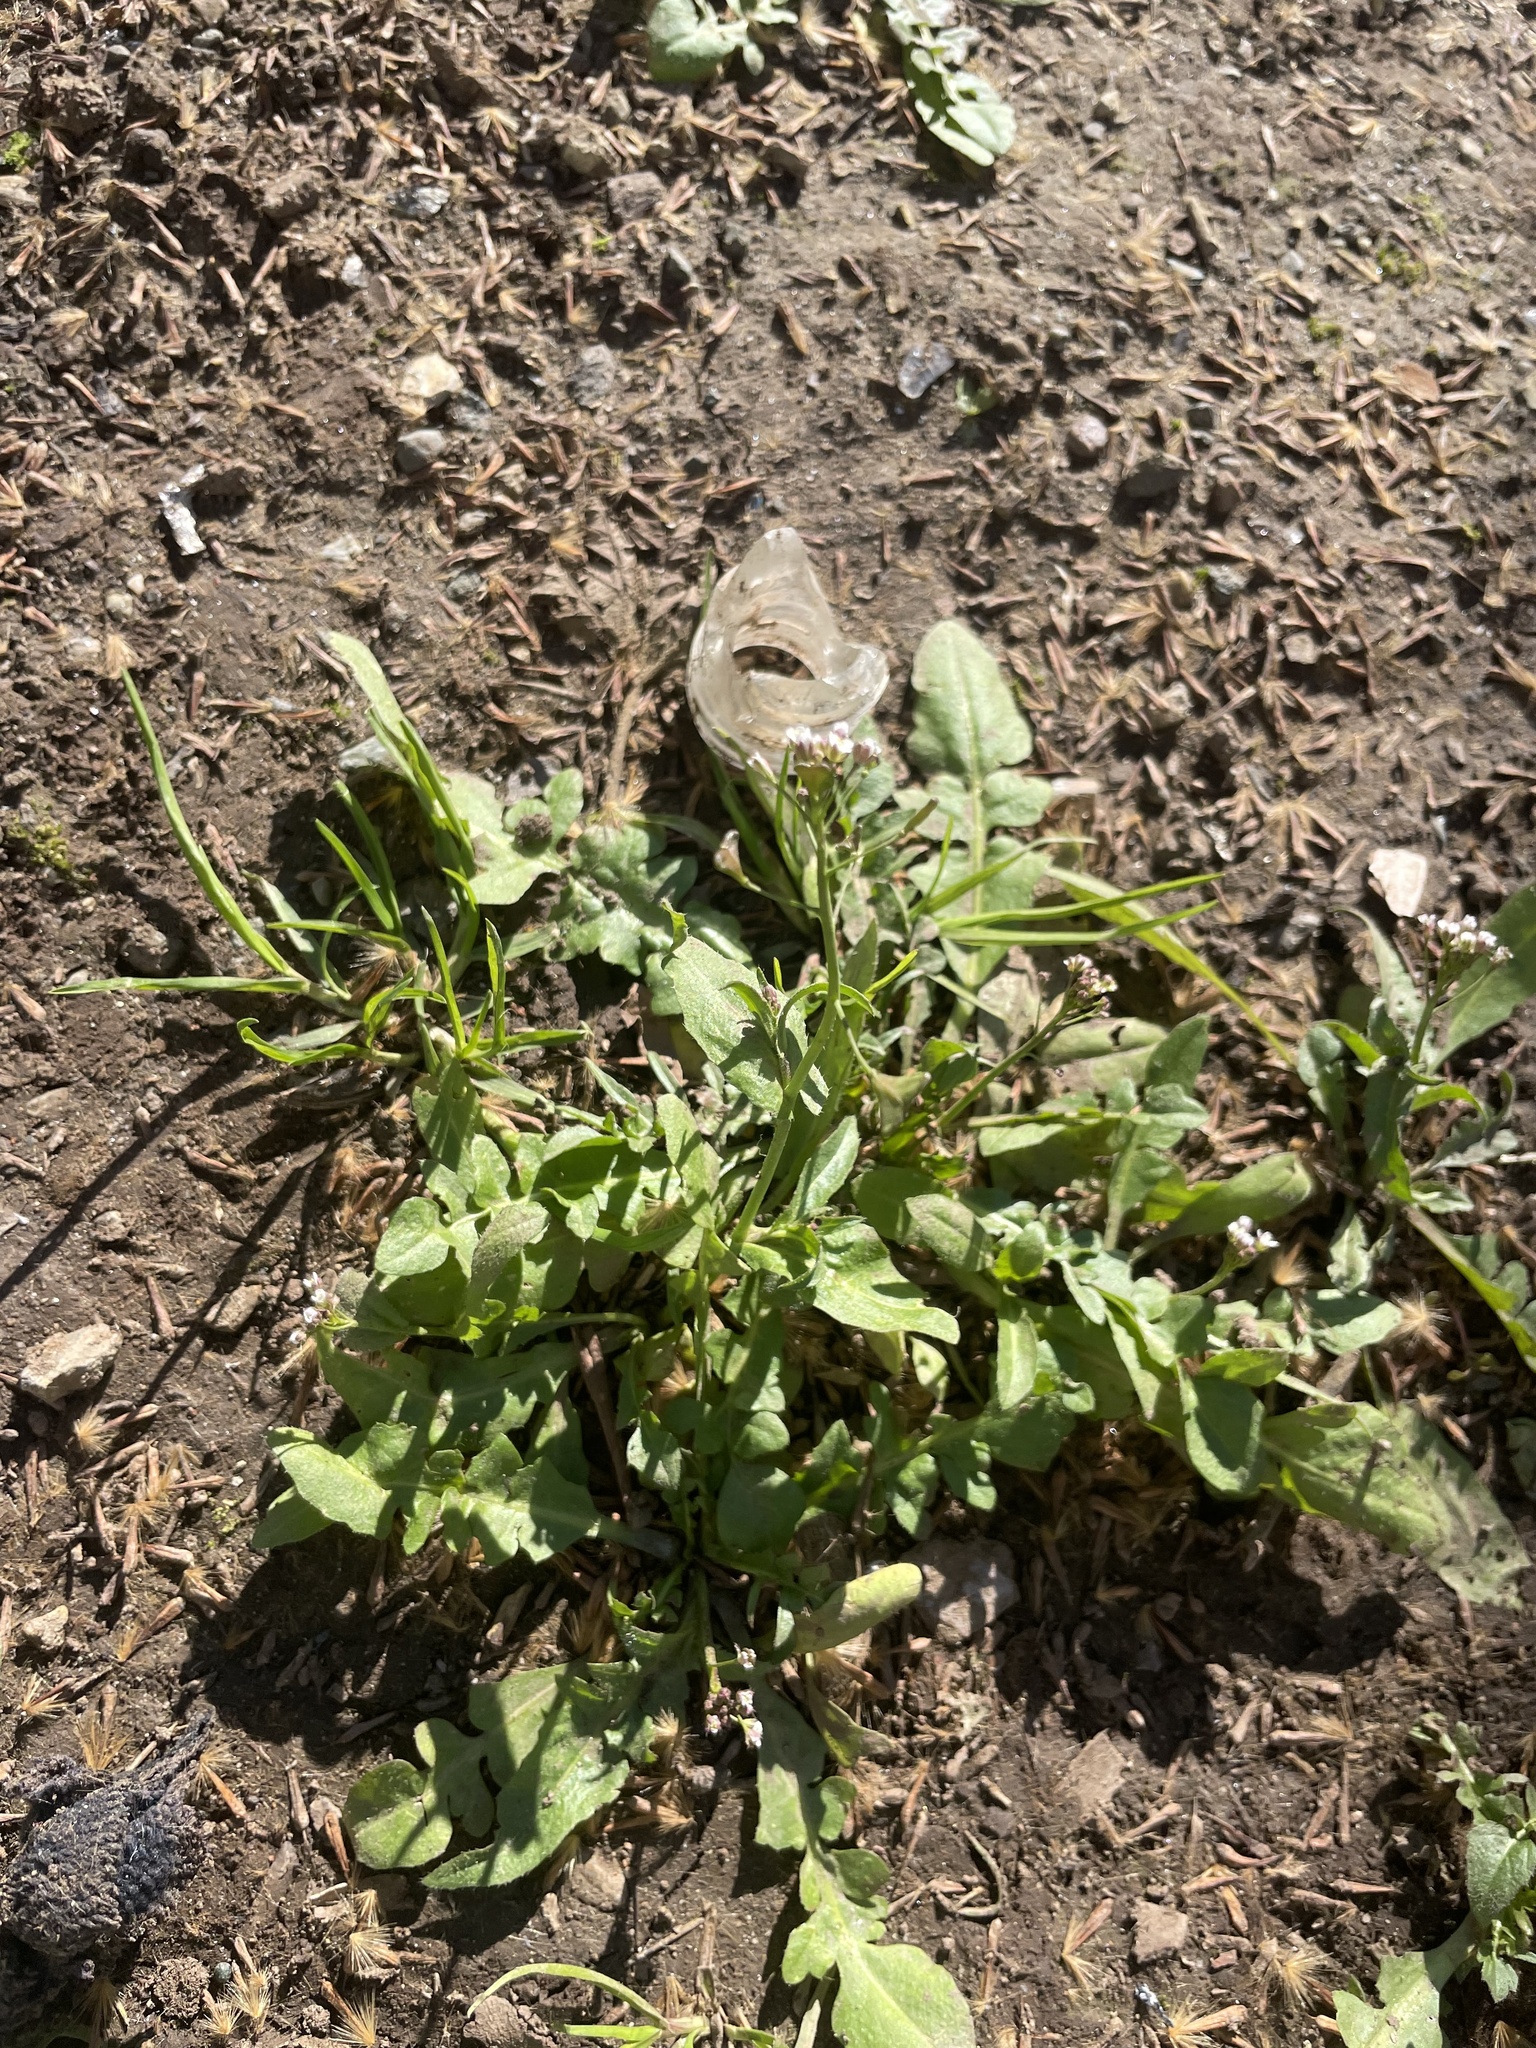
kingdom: Plantae
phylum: Tracheophyta
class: Magnoliopsida
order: Brassicales
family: Brassicaceae
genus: Capsella
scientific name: Capsella bursa-pastoris
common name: Shepherd's purse
